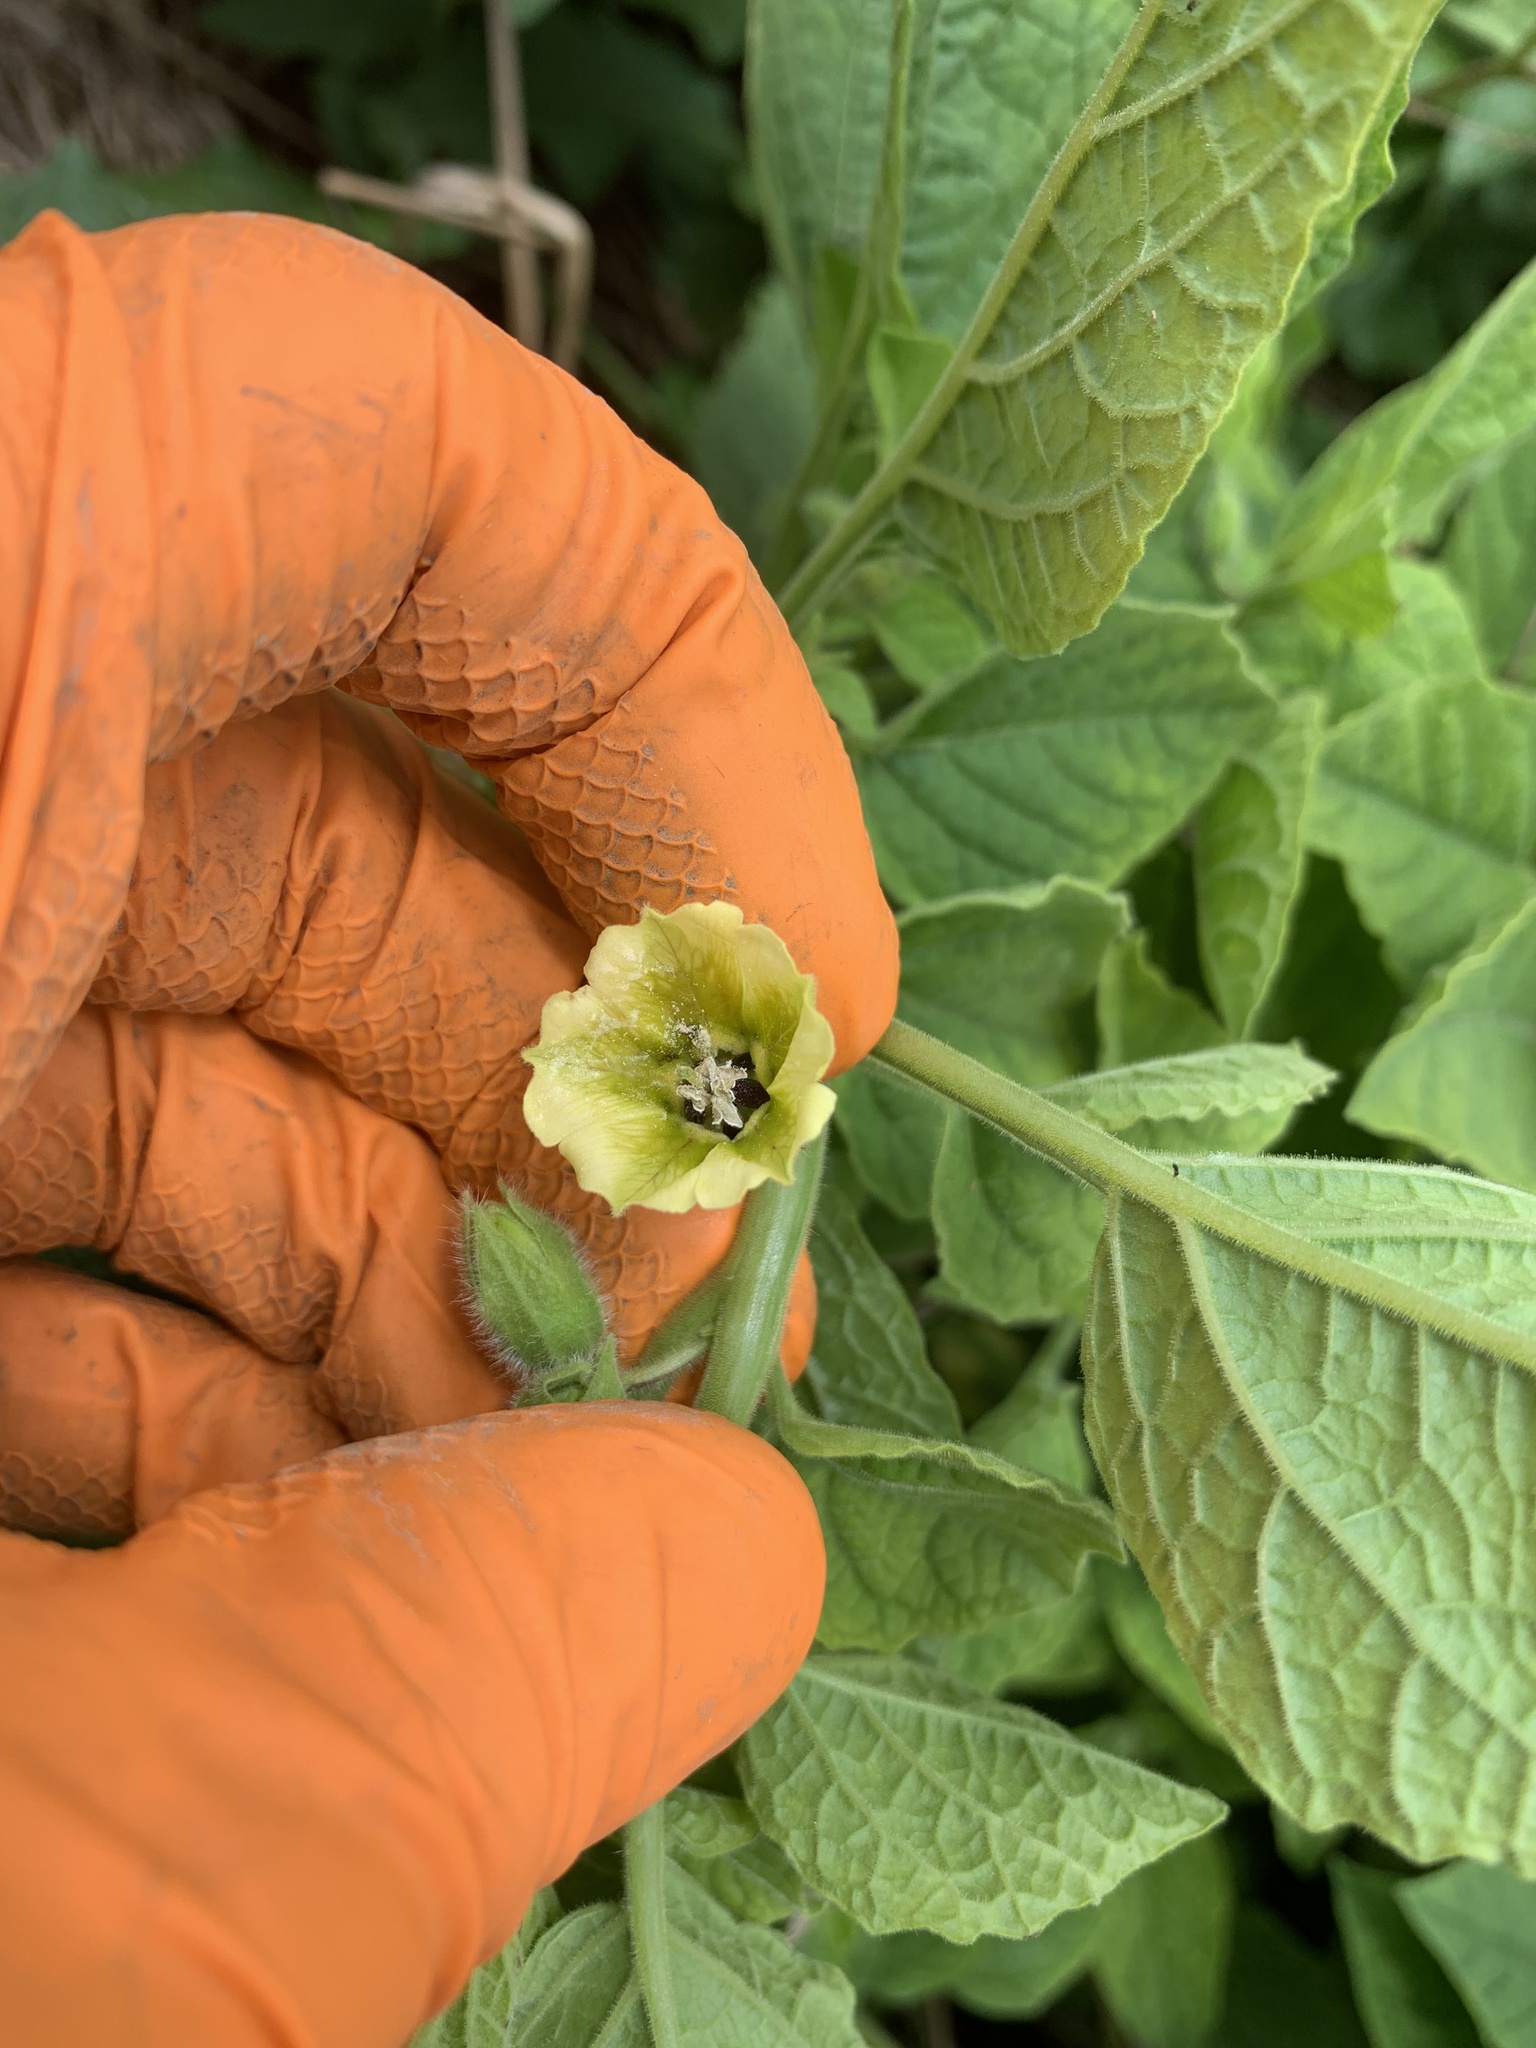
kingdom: Plantae
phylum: Tracheophyta
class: Magnoliopsida
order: Solanales
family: Solanaceae
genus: Physalis
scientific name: Physalis heterophylla
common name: Clammy ground-cherry
